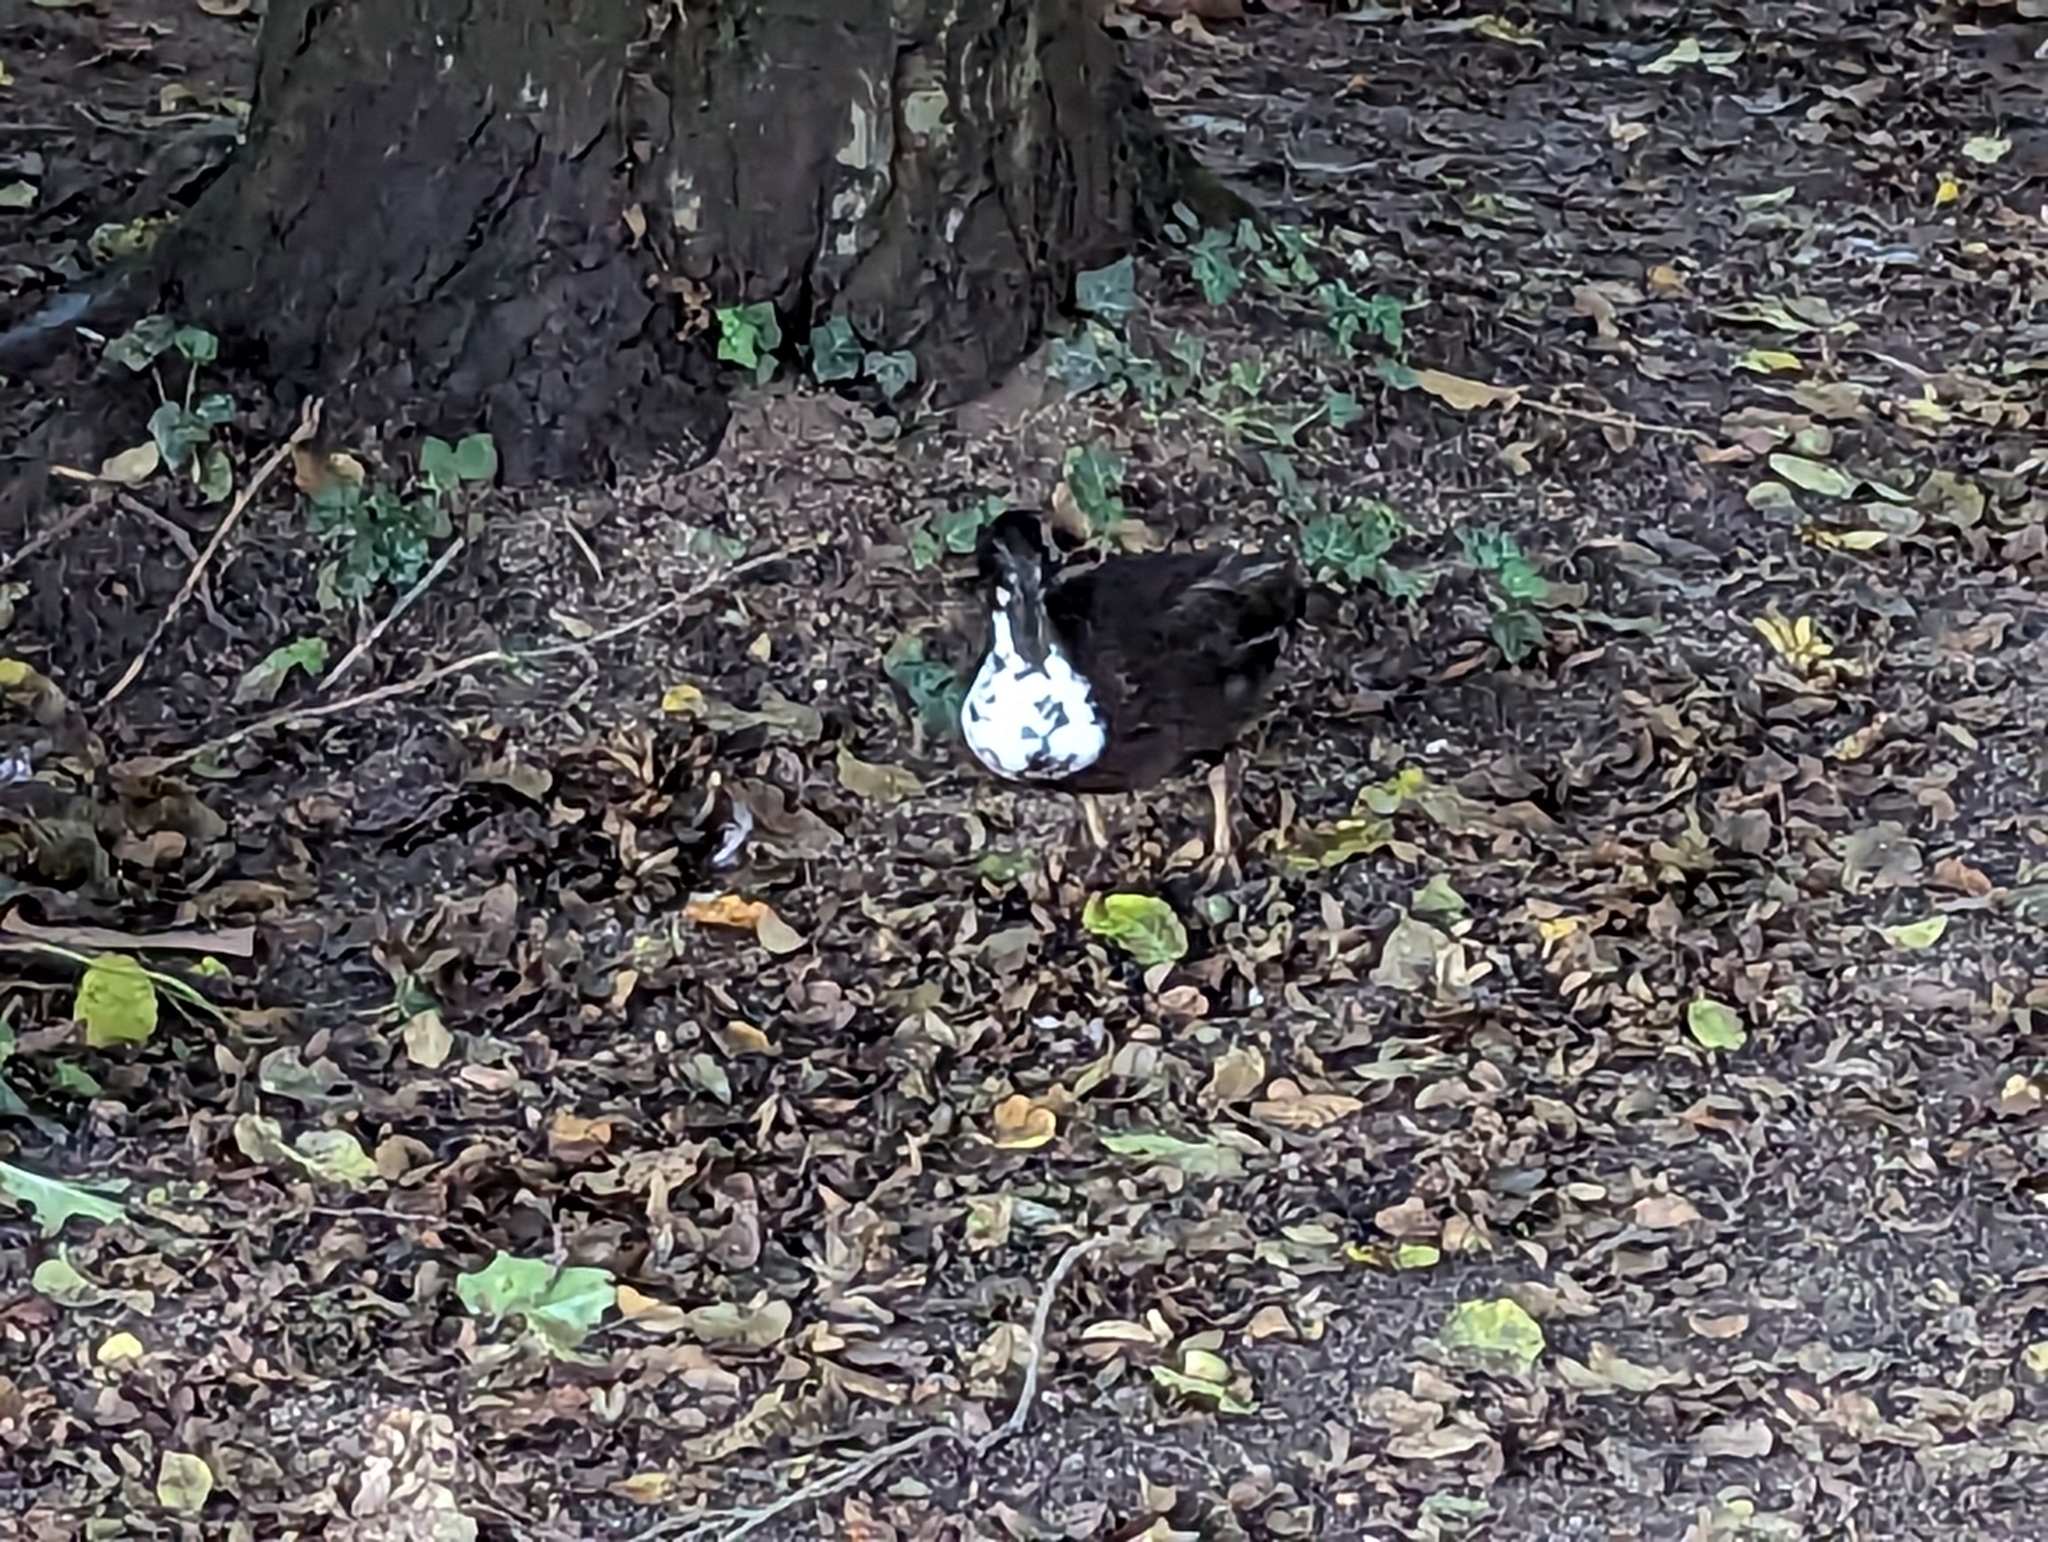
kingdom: Animalia
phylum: Chordata
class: Aves
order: Anseriformes
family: Anatidae
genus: Anas
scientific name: Anas platyrhynchos
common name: Mallard
